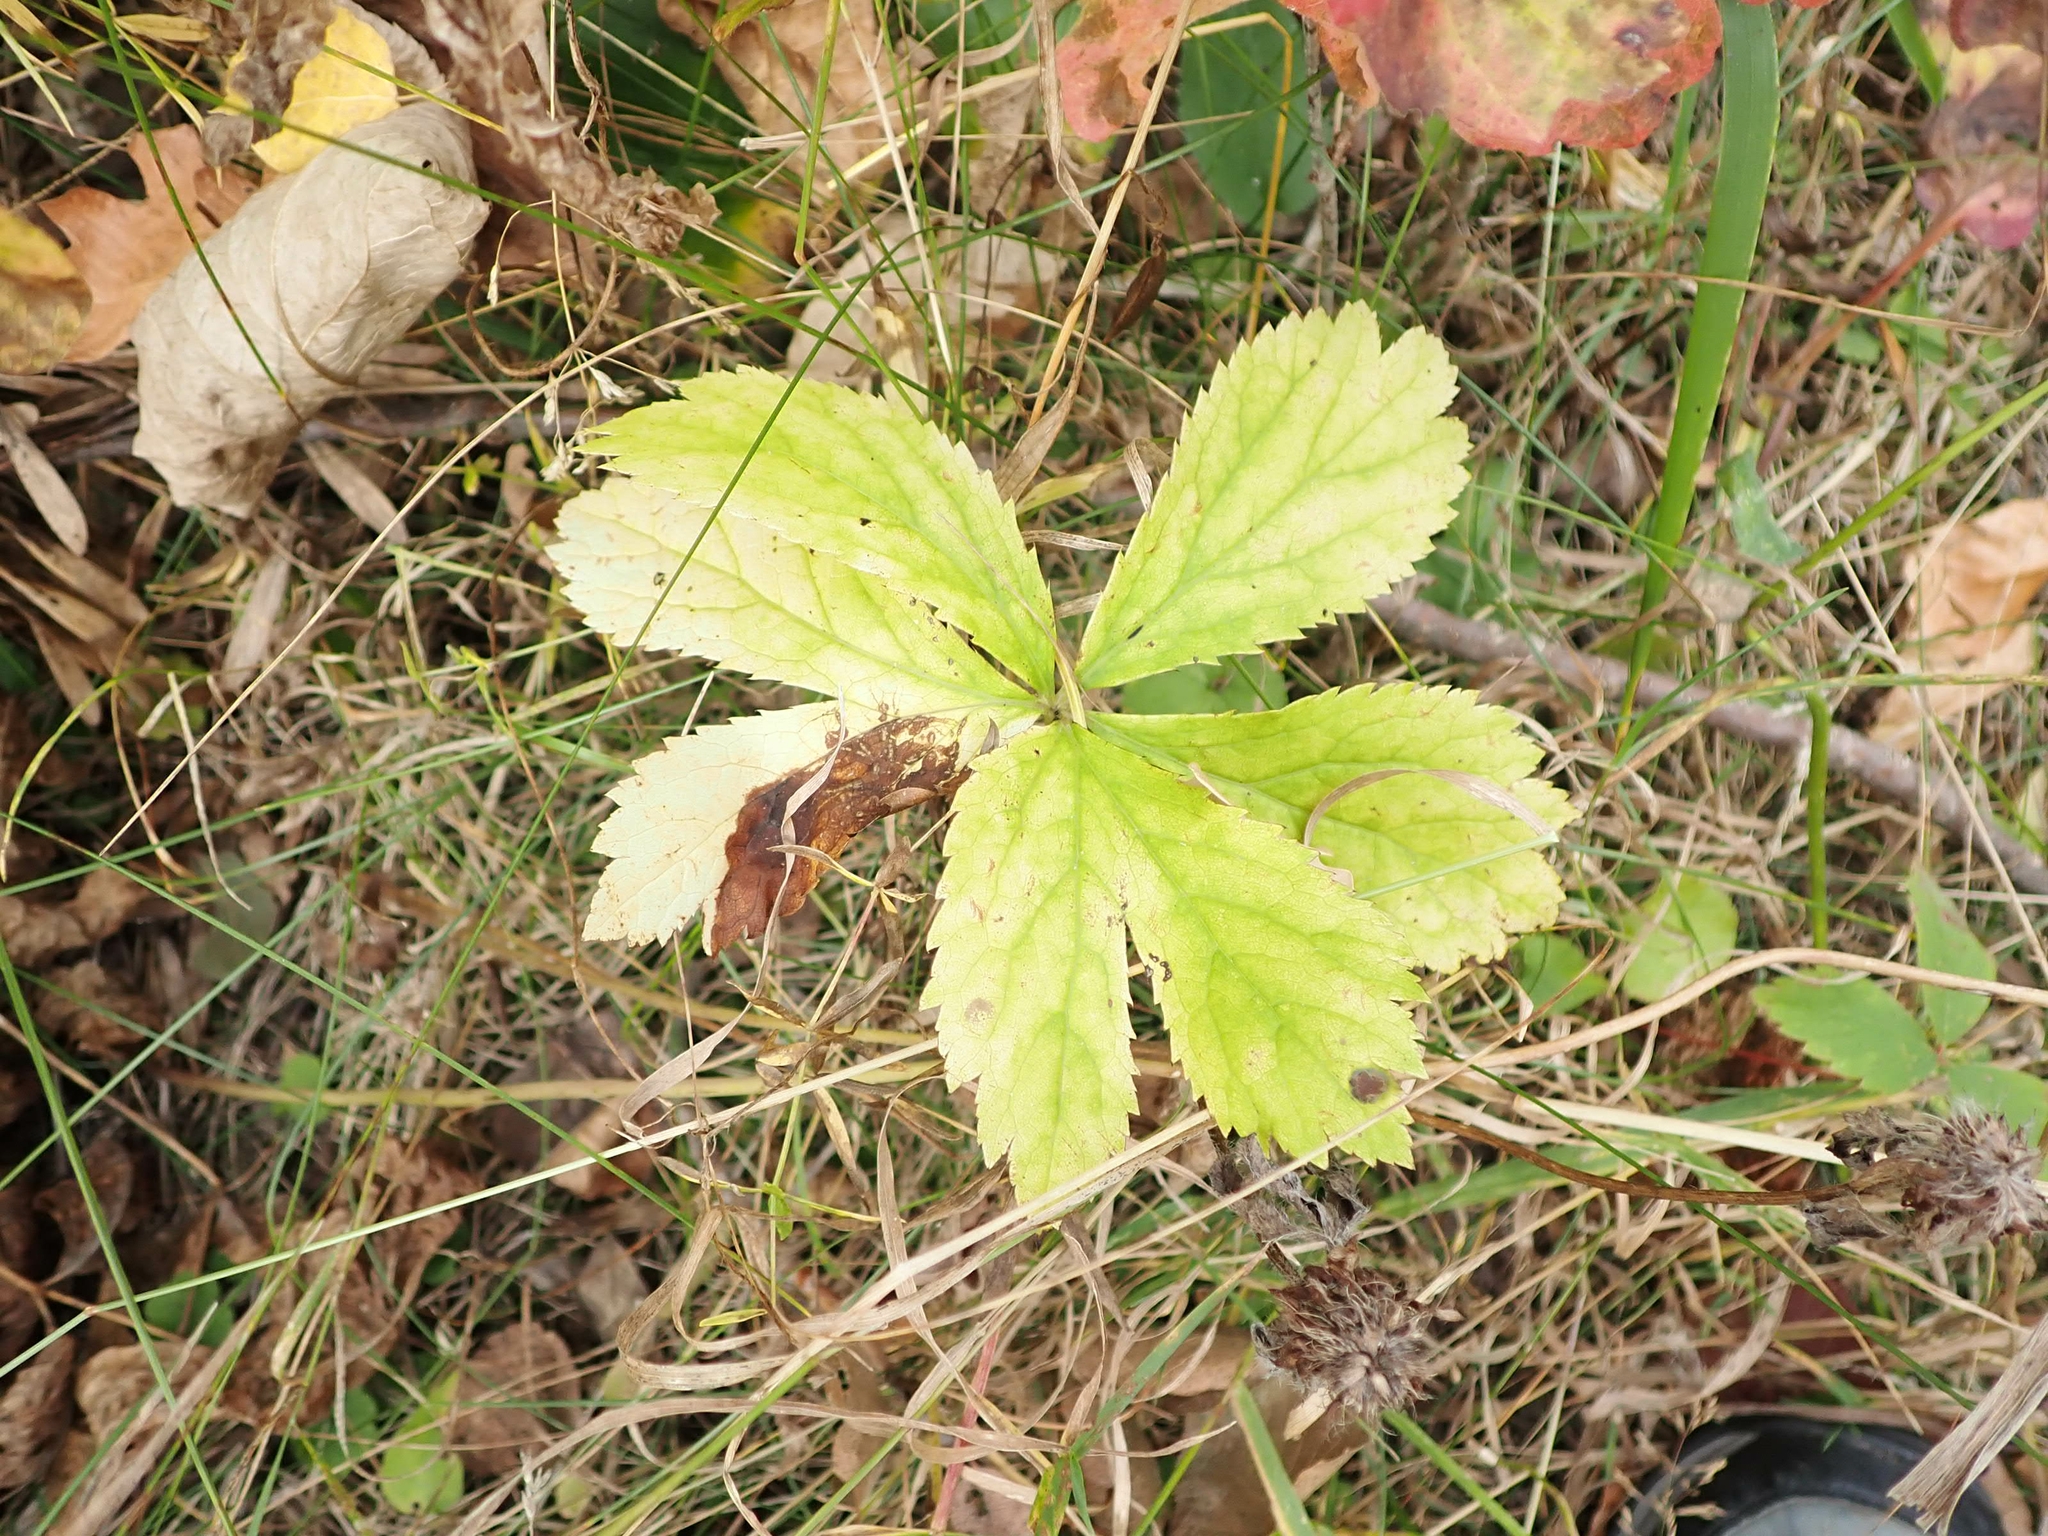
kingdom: Plantae
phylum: Tracheophyta
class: Magnoliopsida
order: Apiales
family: Apiaceae
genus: Sanicula
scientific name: Sanicula marilandica
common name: Black snakeroot
